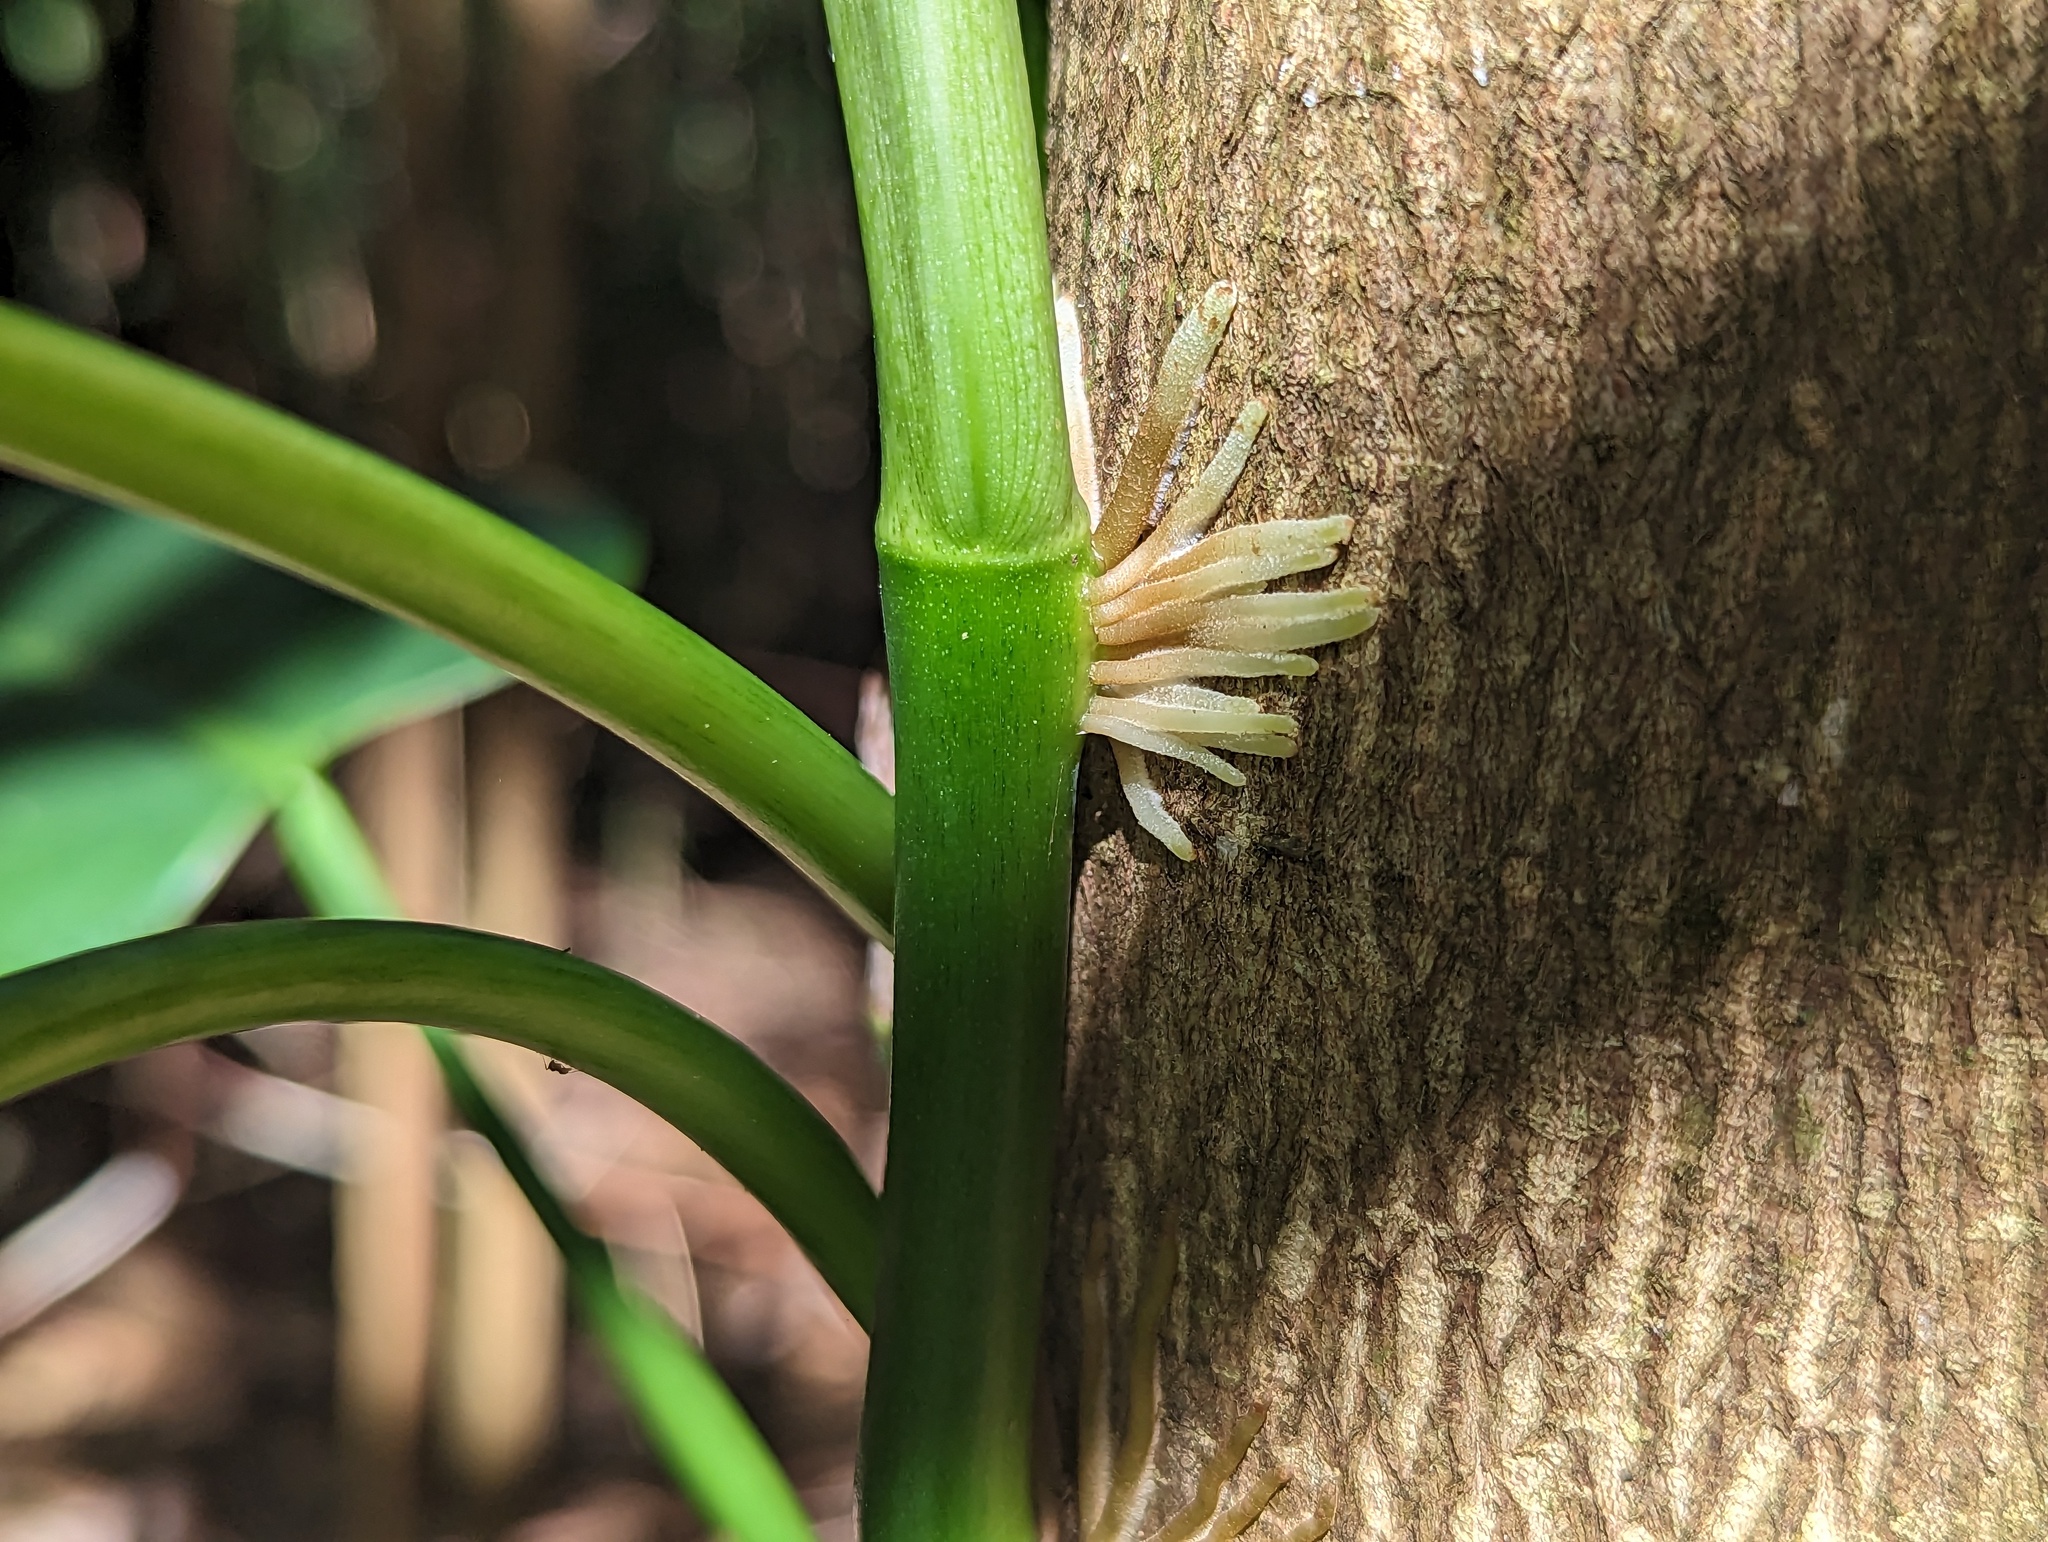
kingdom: Plantae
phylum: Tracheophyta
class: Liliopsida
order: Alismatales
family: Araceae
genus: Philodendron
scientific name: Philodendron consanguineum
